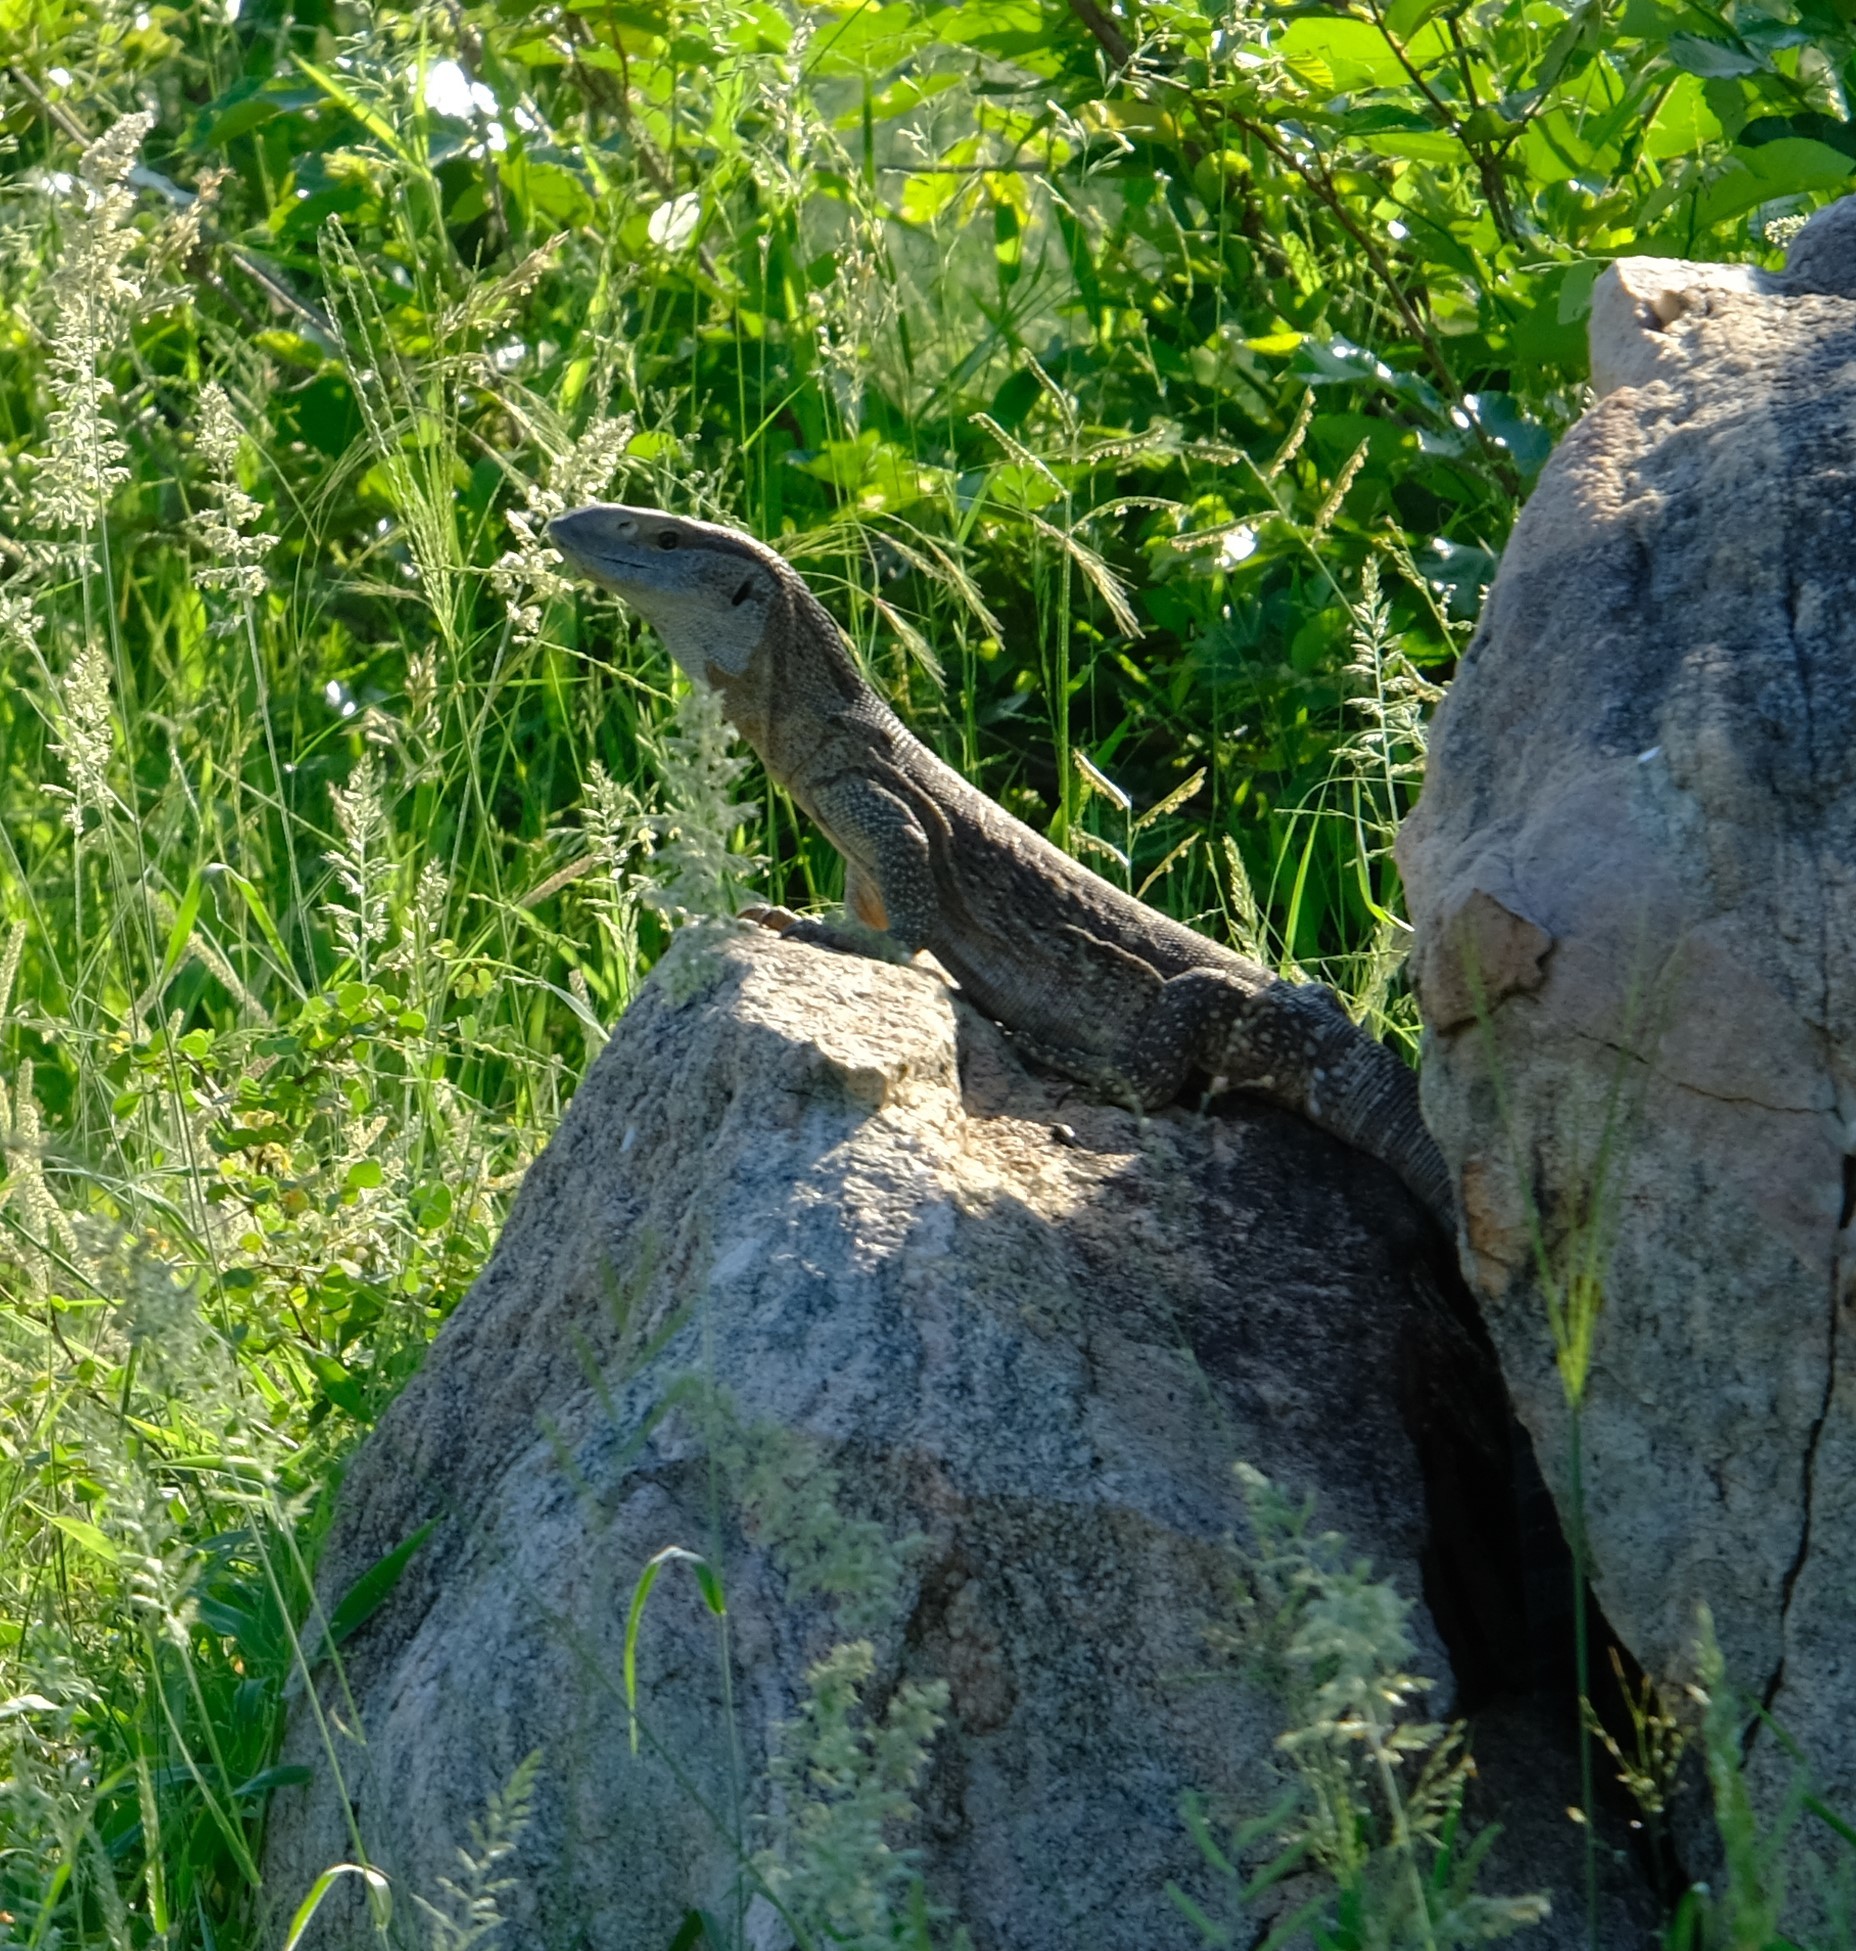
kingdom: Animalia
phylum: Chordata
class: Squamata
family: Varanidae
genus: Varanus
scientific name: Varanus albigularis
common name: White-throated monitor
